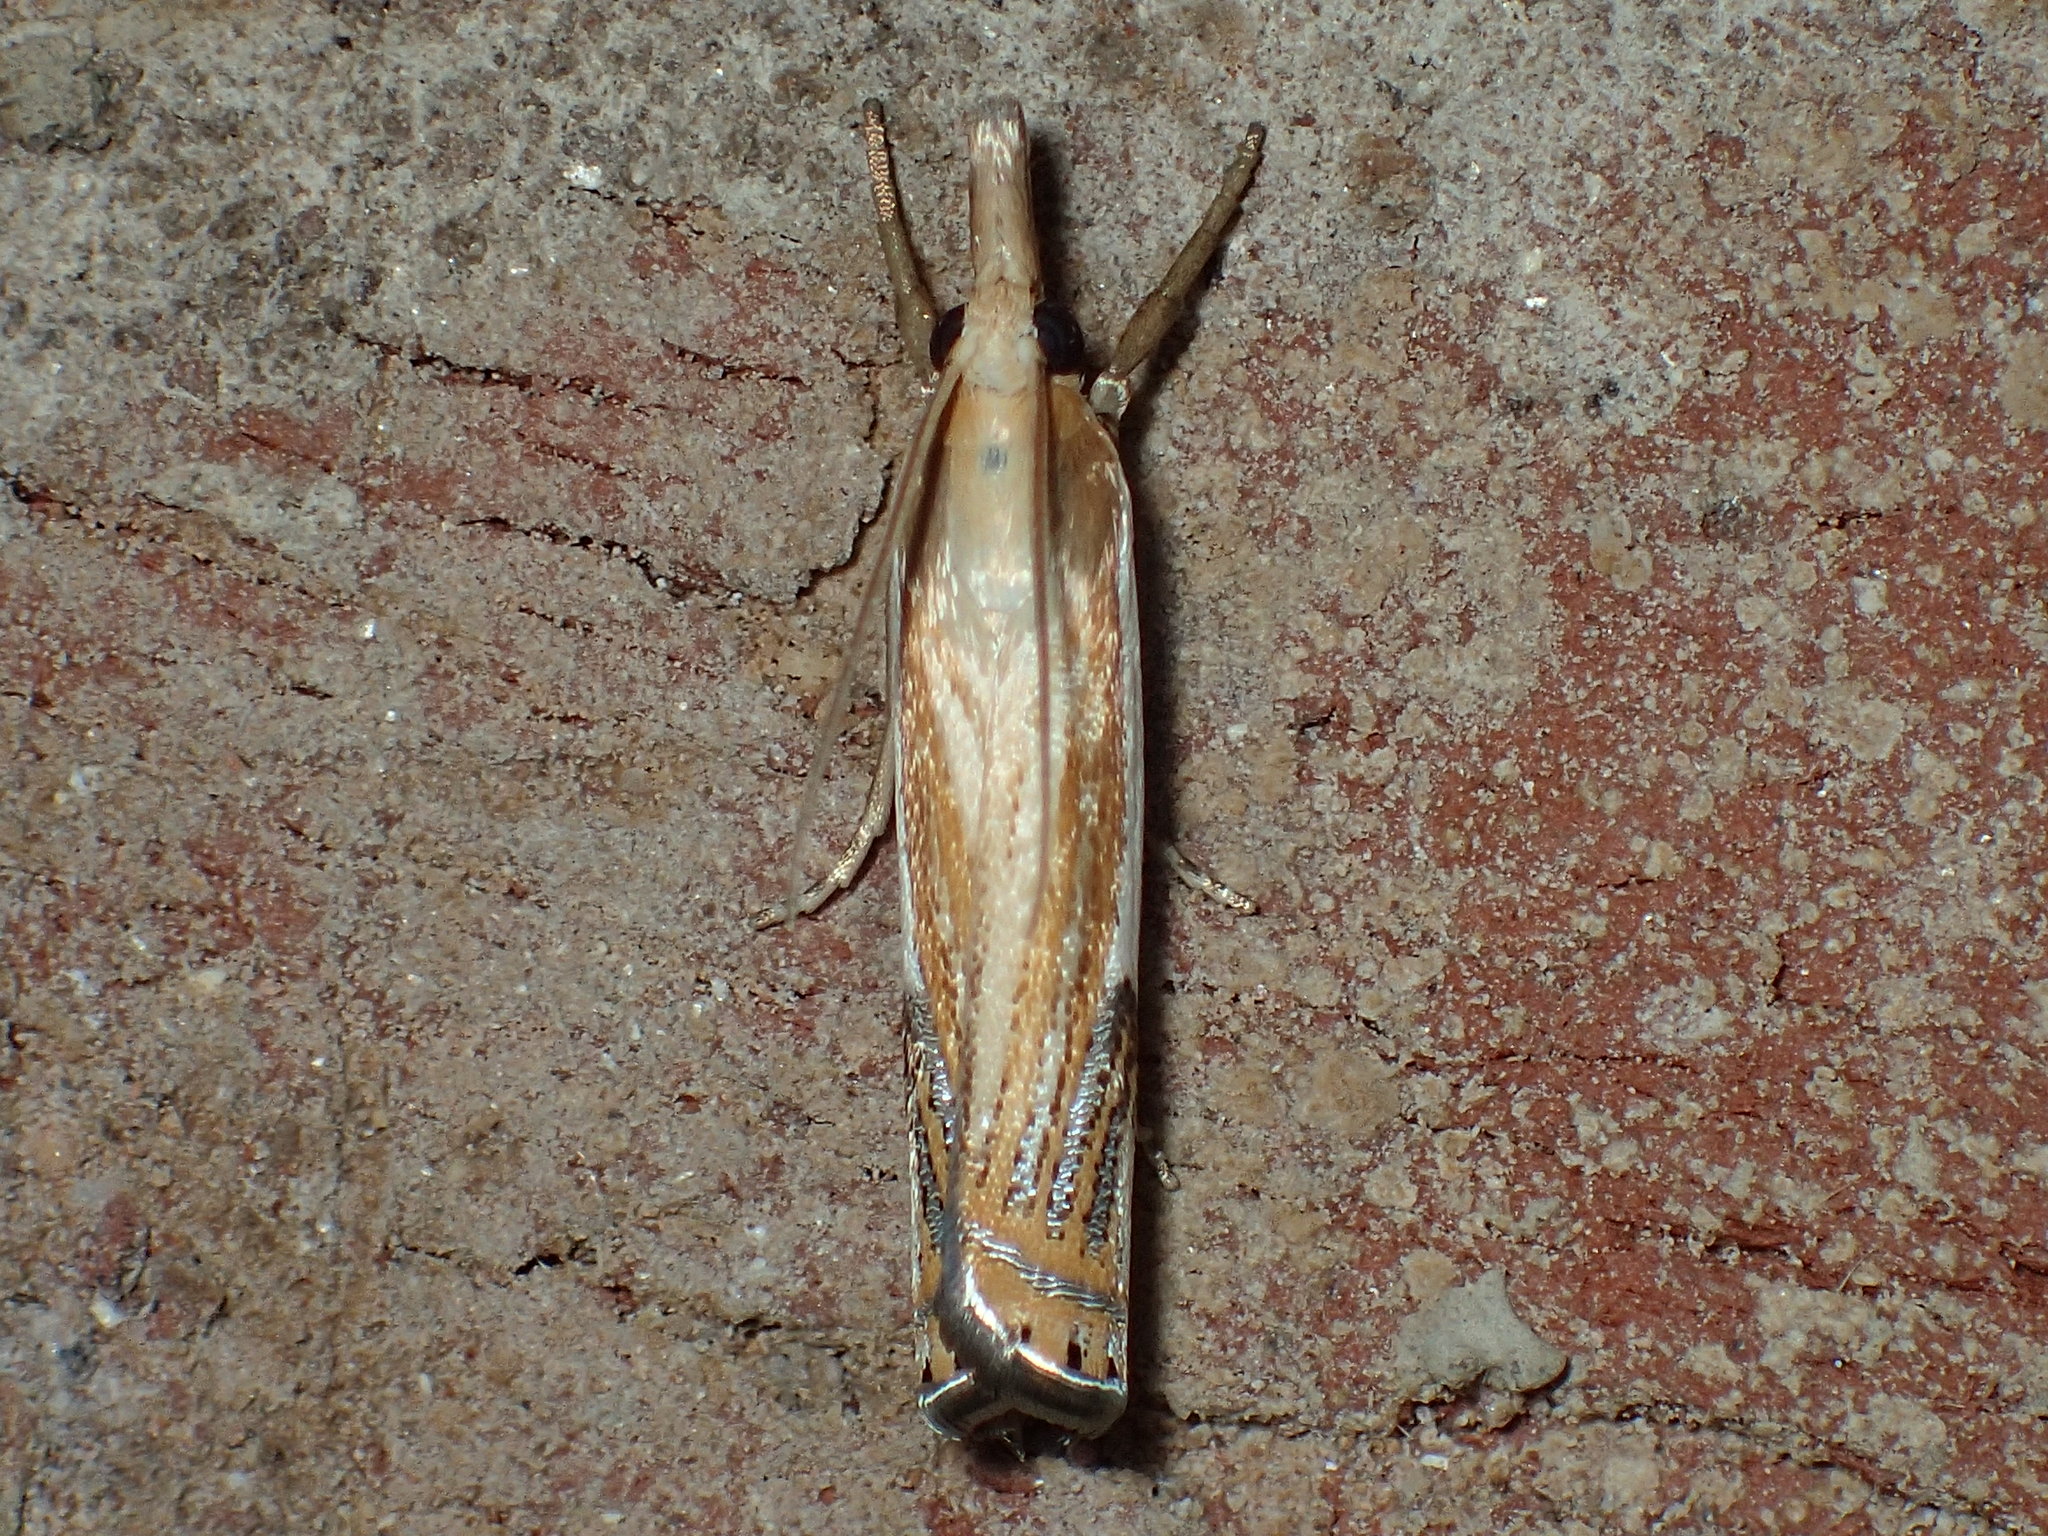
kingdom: Animalia
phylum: Arthropoda
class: Insecta
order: Lepidoptera
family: Crambidae
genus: Crambus
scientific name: Crambus agitatellus
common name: Double-banded grass-veneer
